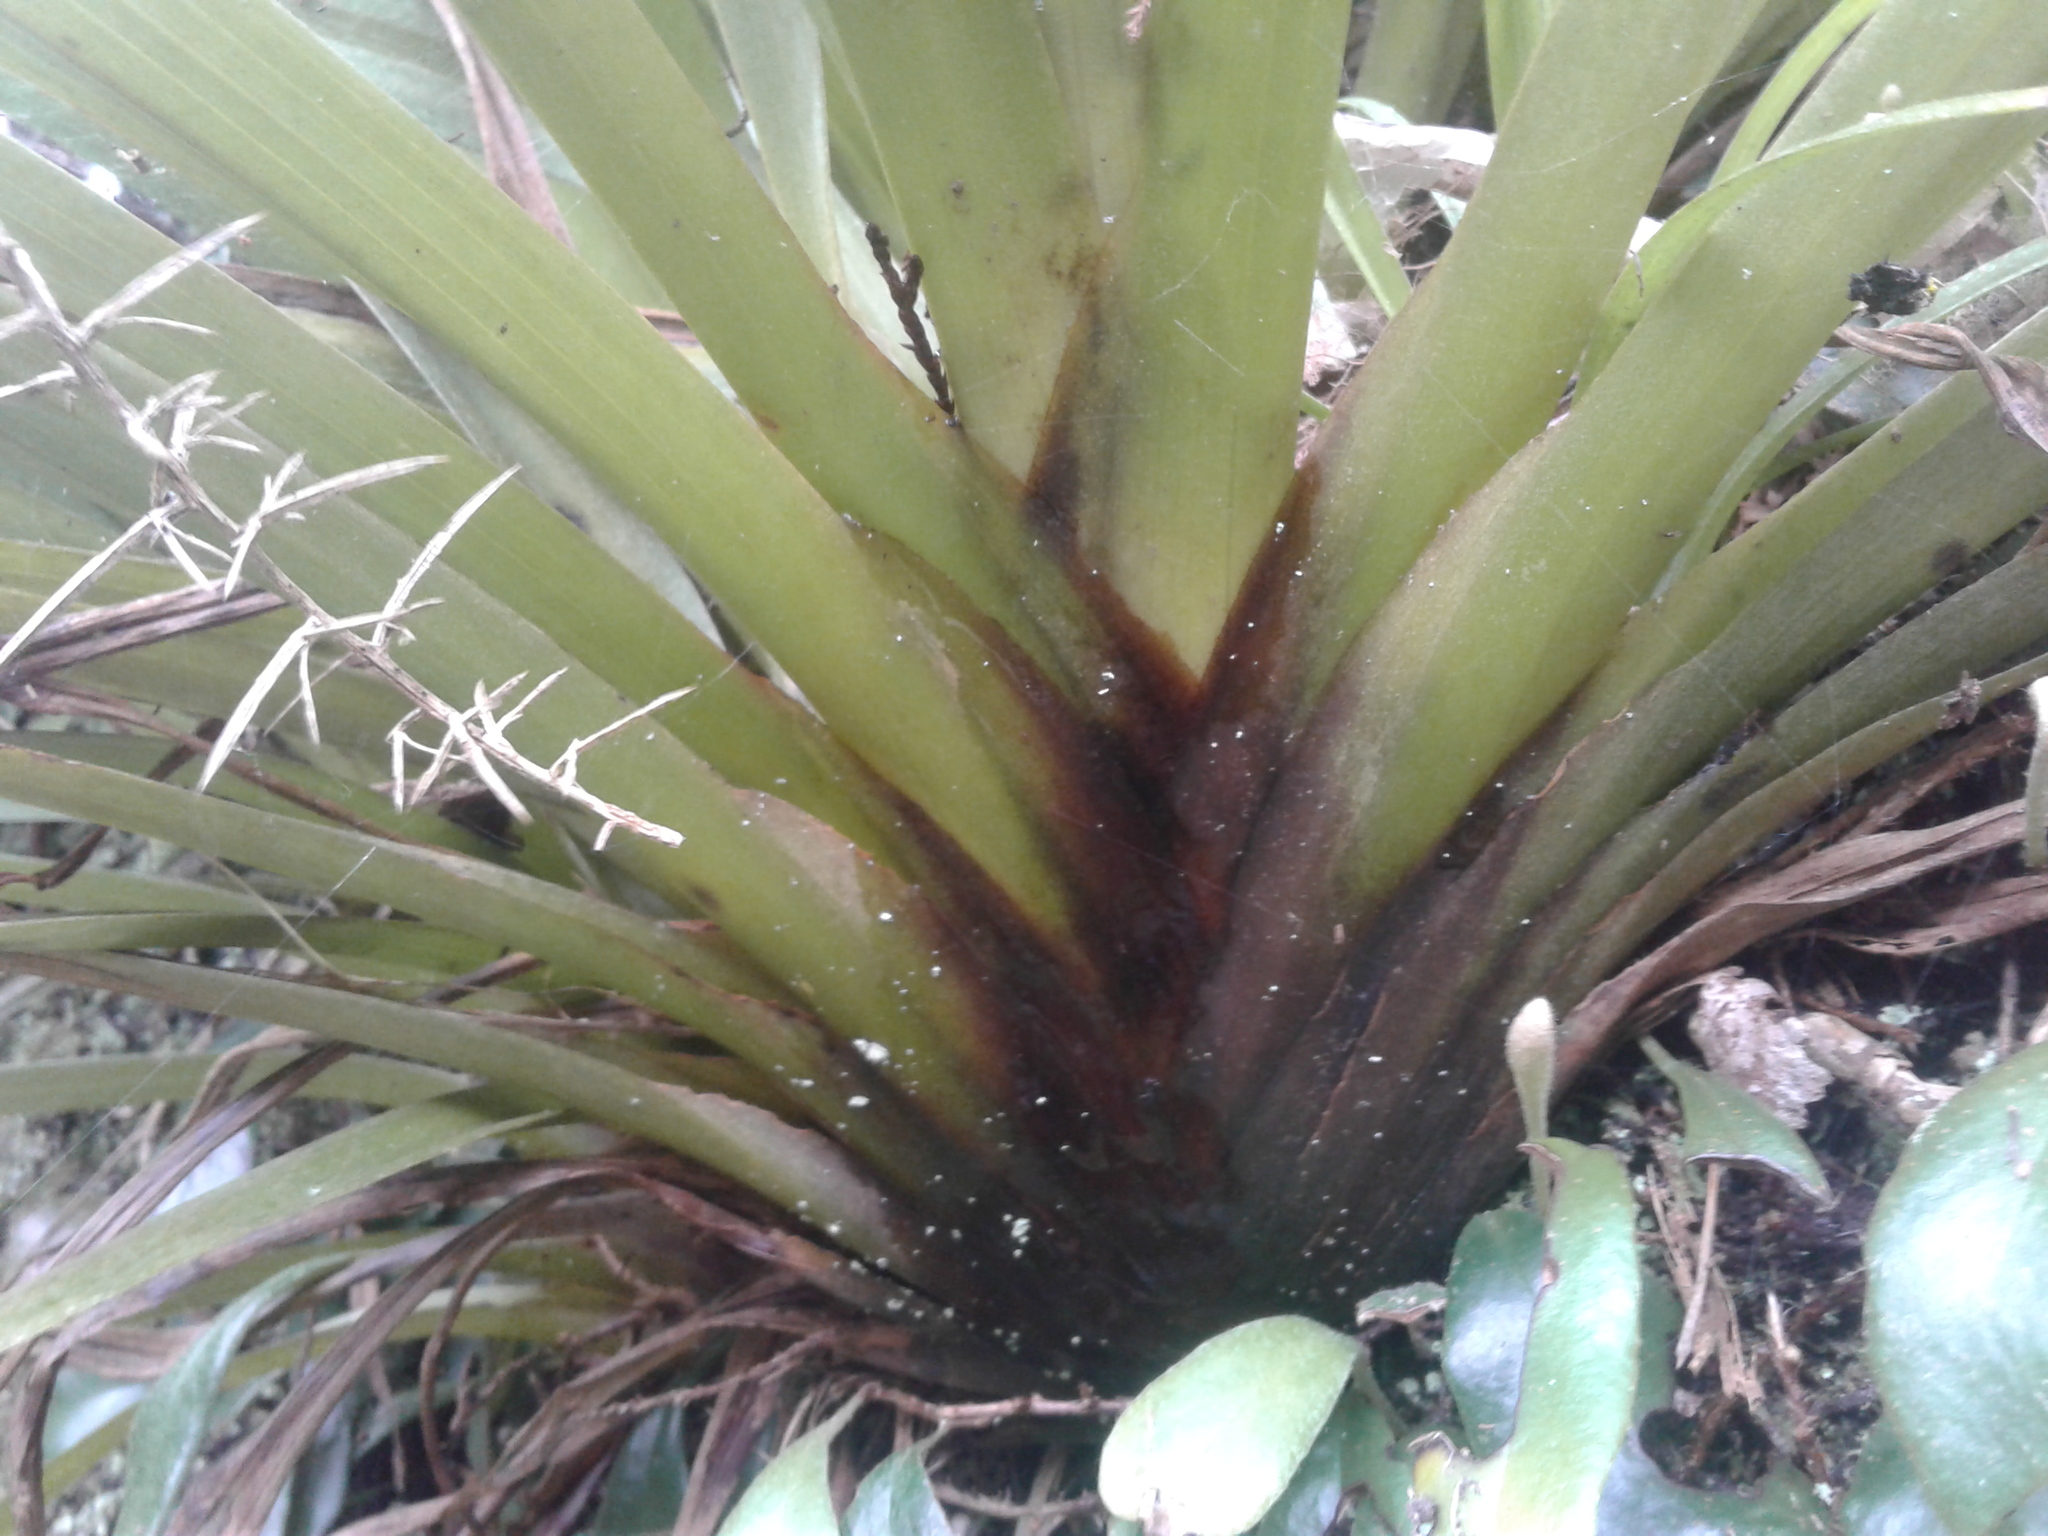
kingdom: Plantae
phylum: Tracheophyta
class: Liliopsida
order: Asparagales
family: Asteliaceae
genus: Astelia
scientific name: Astelia hastata
